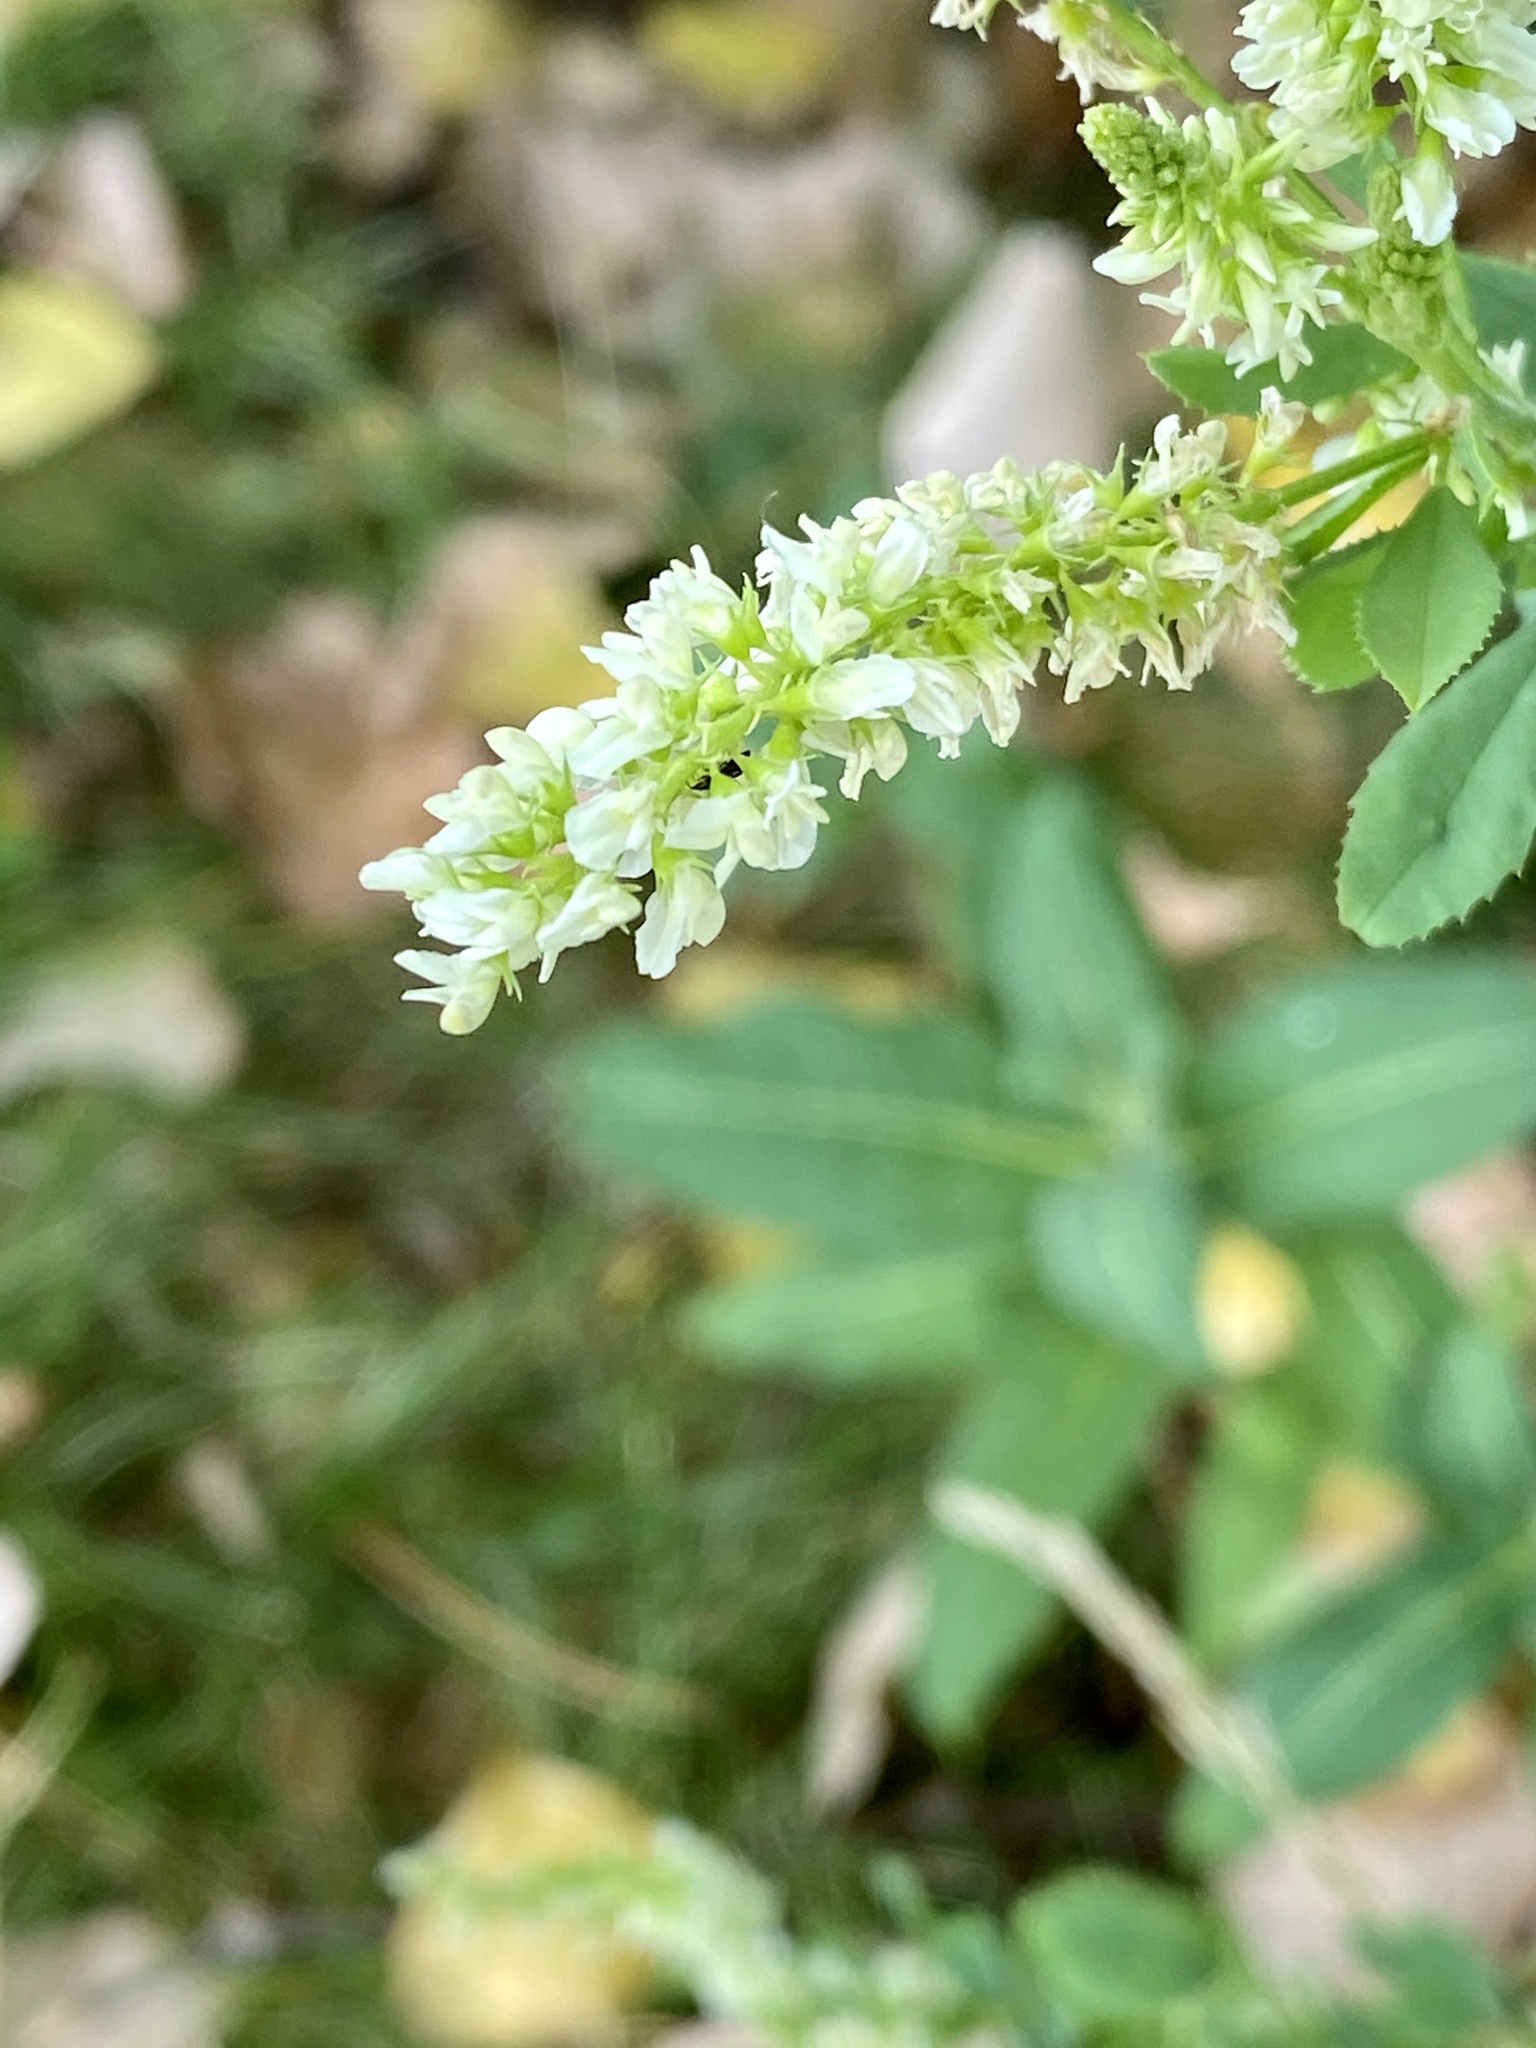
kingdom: Plantae
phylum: Tracheophyta
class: Magnoliopsida
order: Fabales
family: Fabaceae
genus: Melilotus
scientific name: Melilotus albus
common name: White melilot
